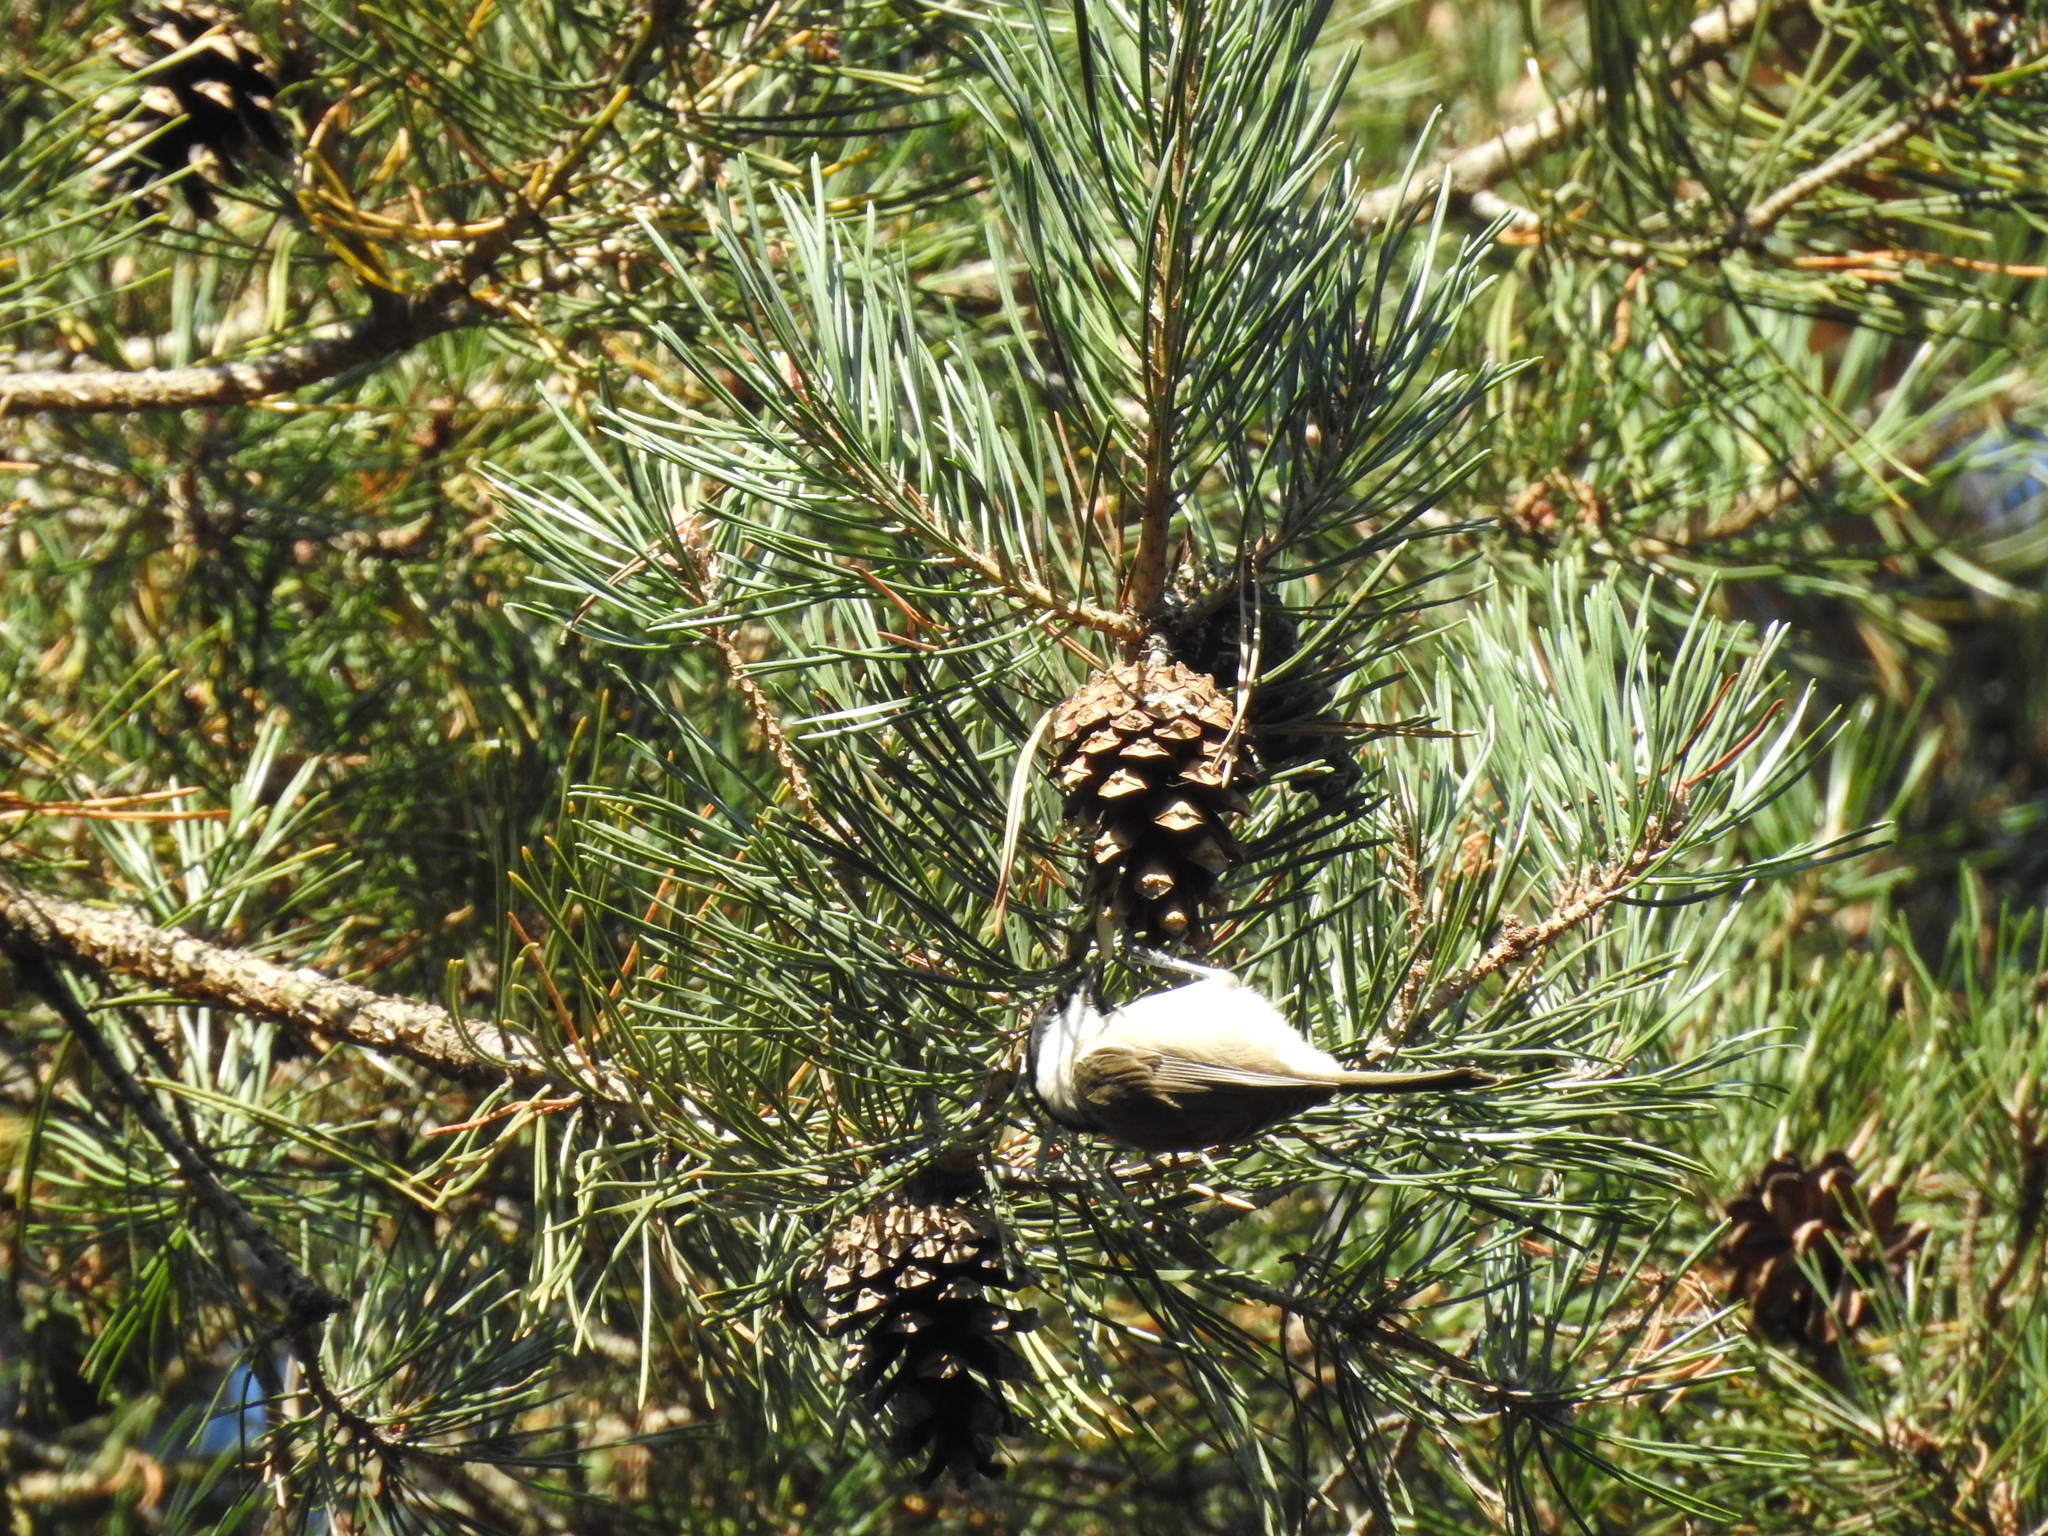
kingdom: Animalia
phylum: Chordata
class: Aves
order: Passeriformes
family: Paridae
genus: Poecile
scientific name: Poecile palustris
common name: Marsh tit
